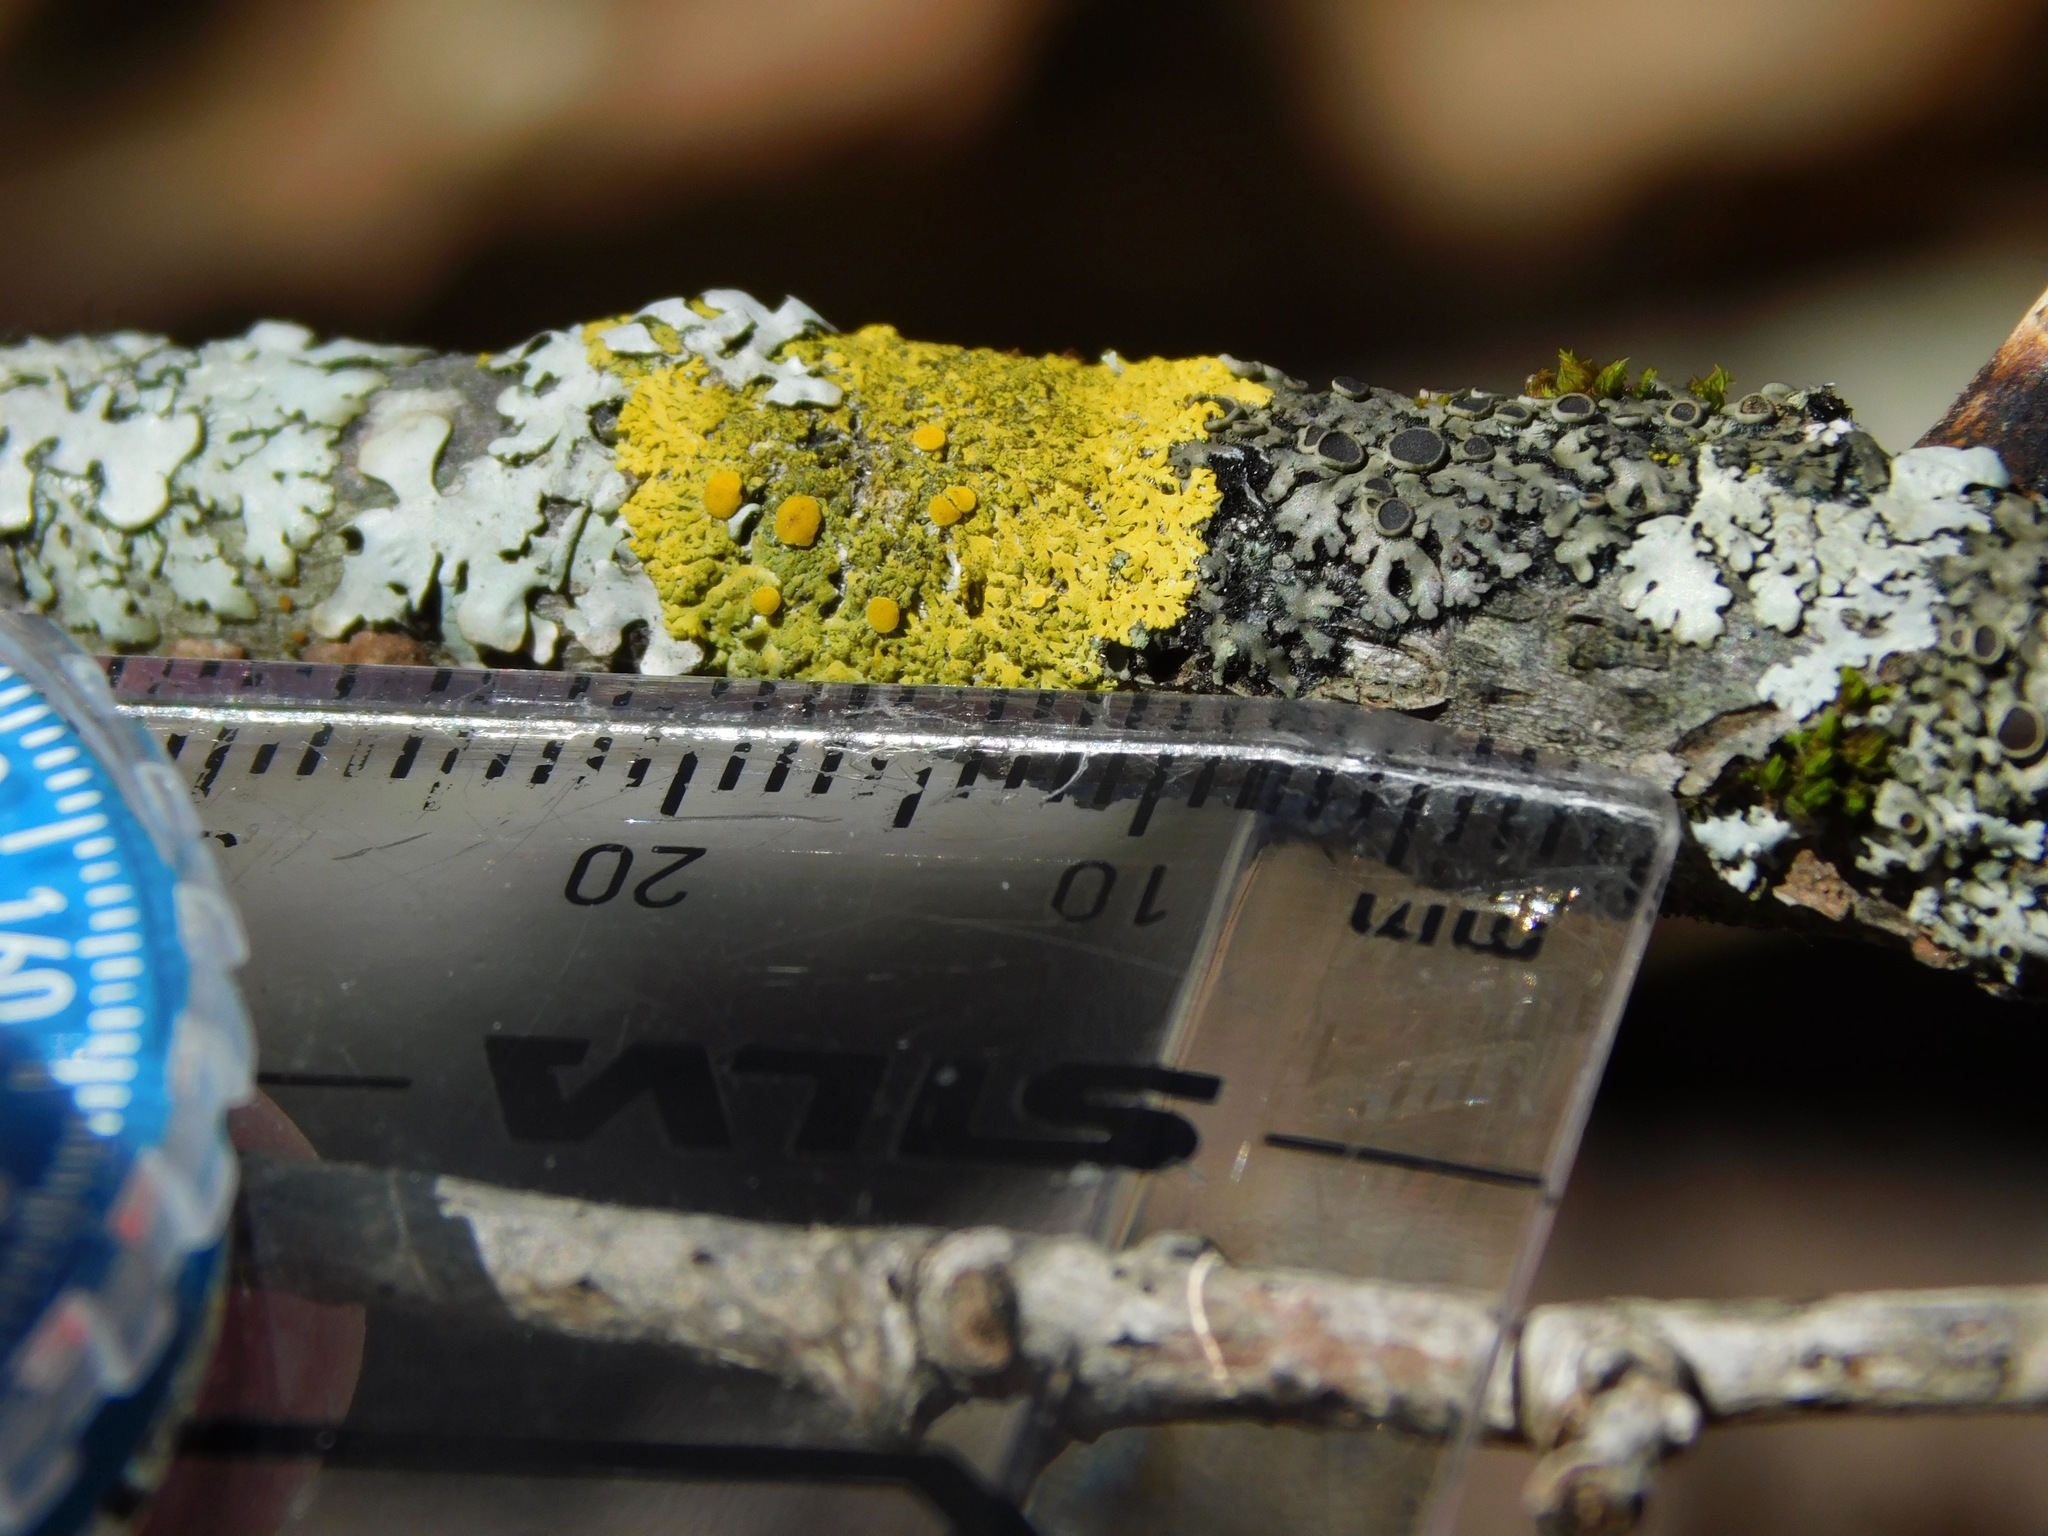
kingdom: Fungi
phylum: Ascomycota
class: Lecanoromycetes
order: Caliciales
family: Physciaceae
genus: Phaeophyscia
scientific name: Phaeophyscia ciliata
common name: Smooth shadow lichen
